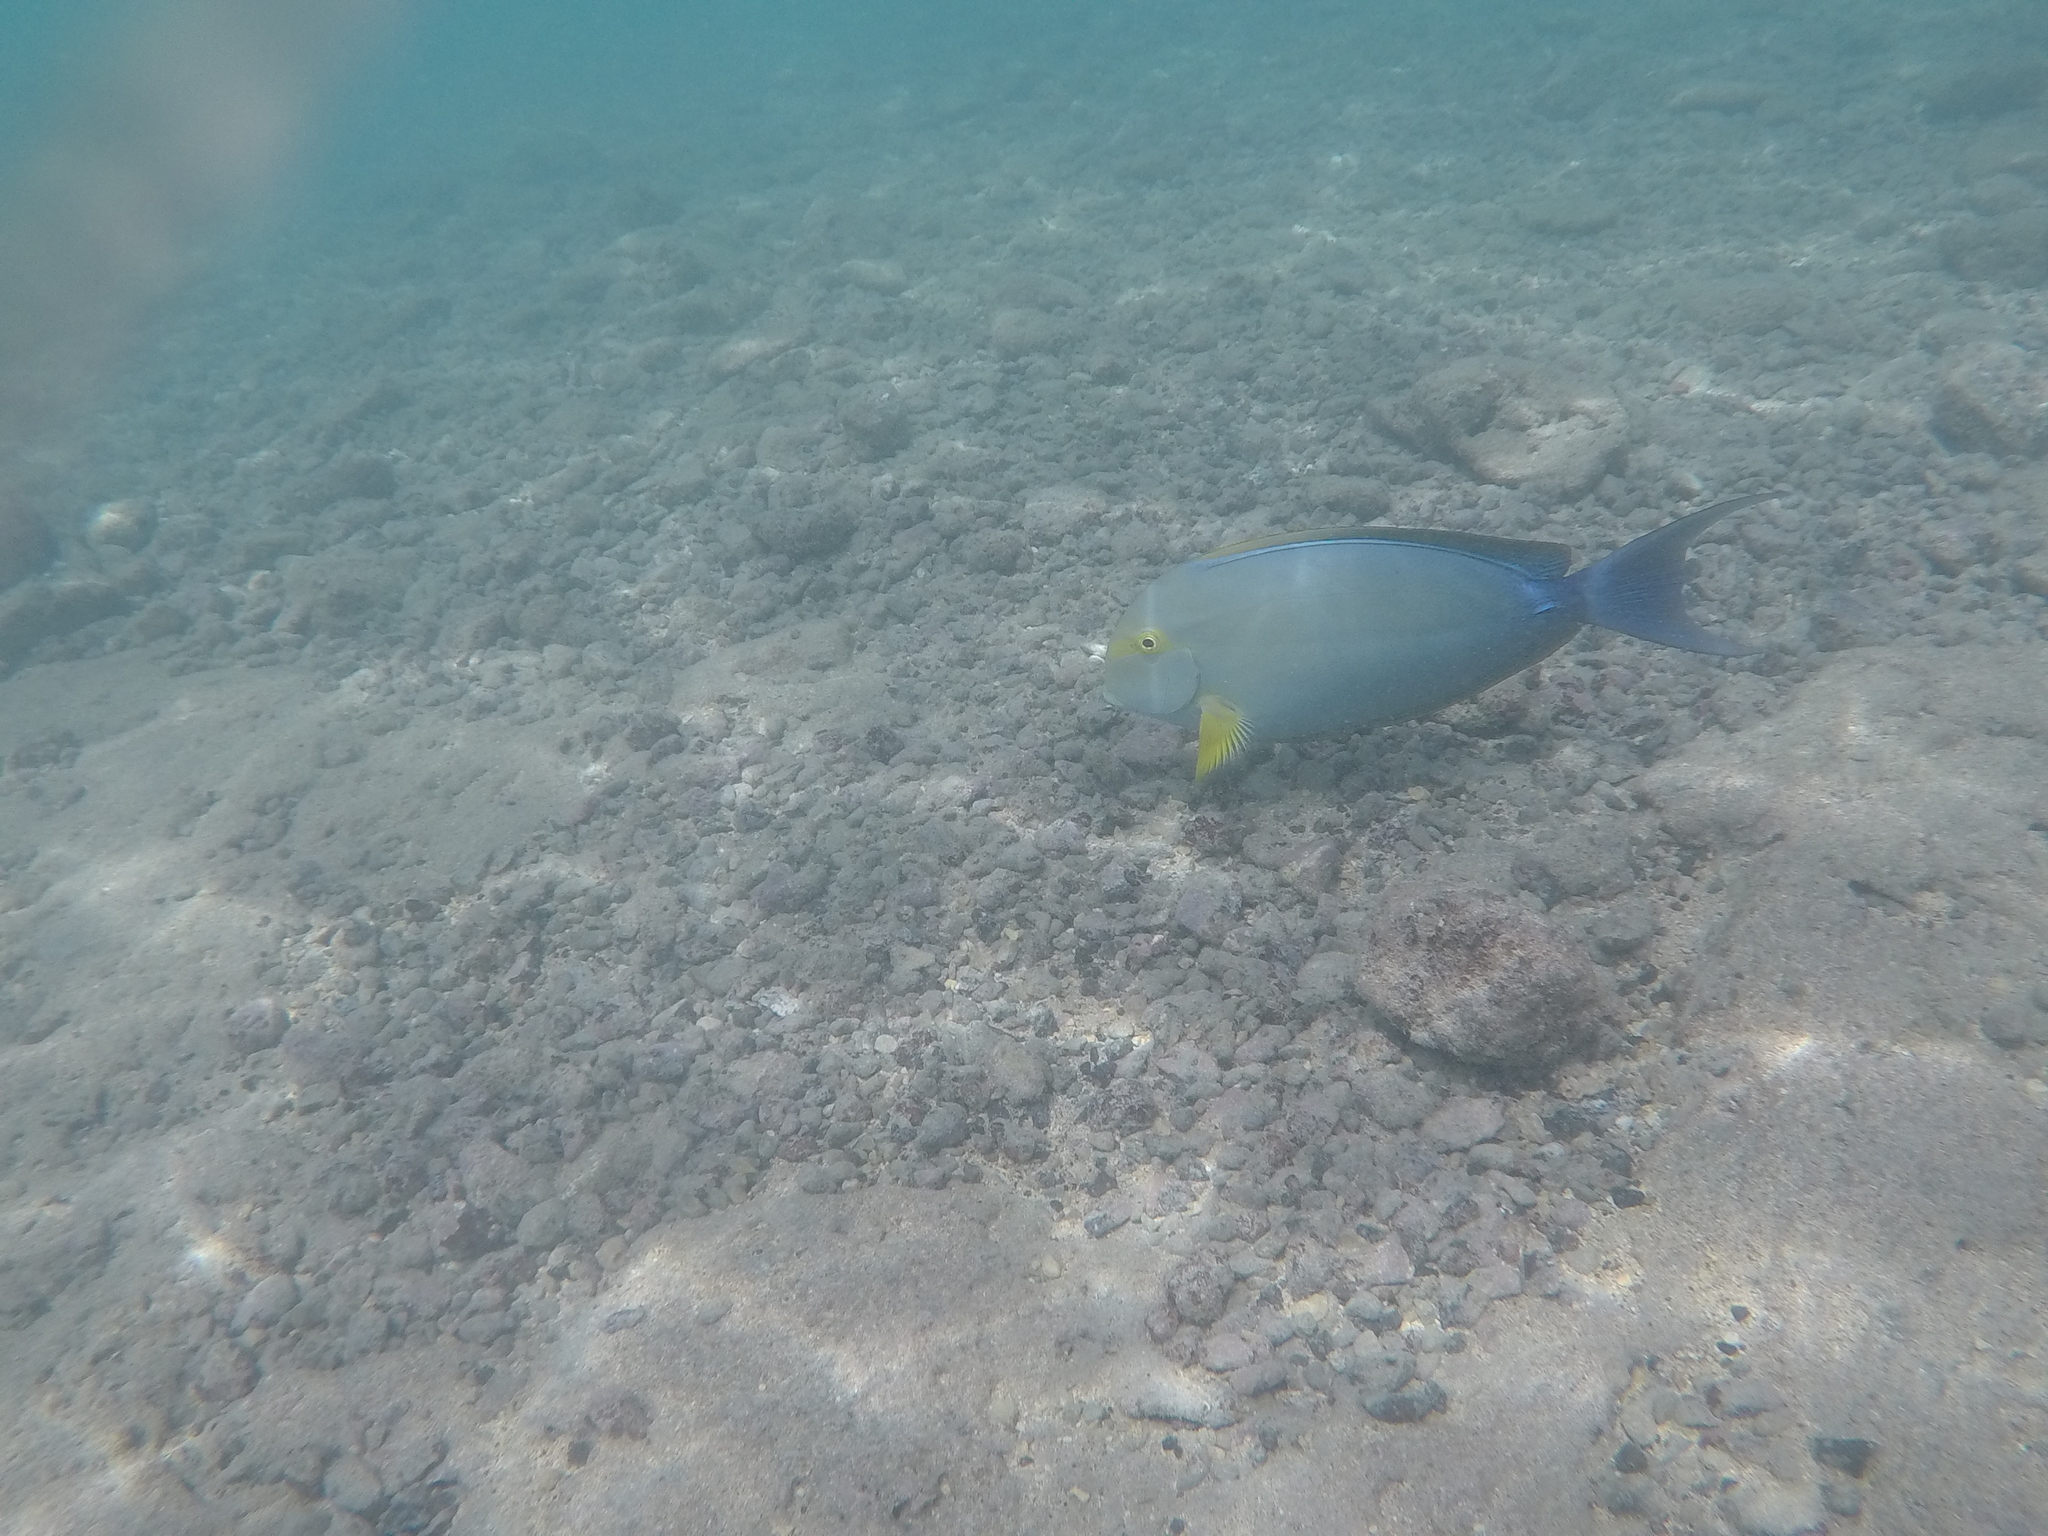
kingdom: Animalia
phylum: Chordata
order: Perciformes
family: Acanthuridae
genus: Acanthurus
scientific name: Acanthurus xanthopterus
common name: Cuvier's surgeonfish
